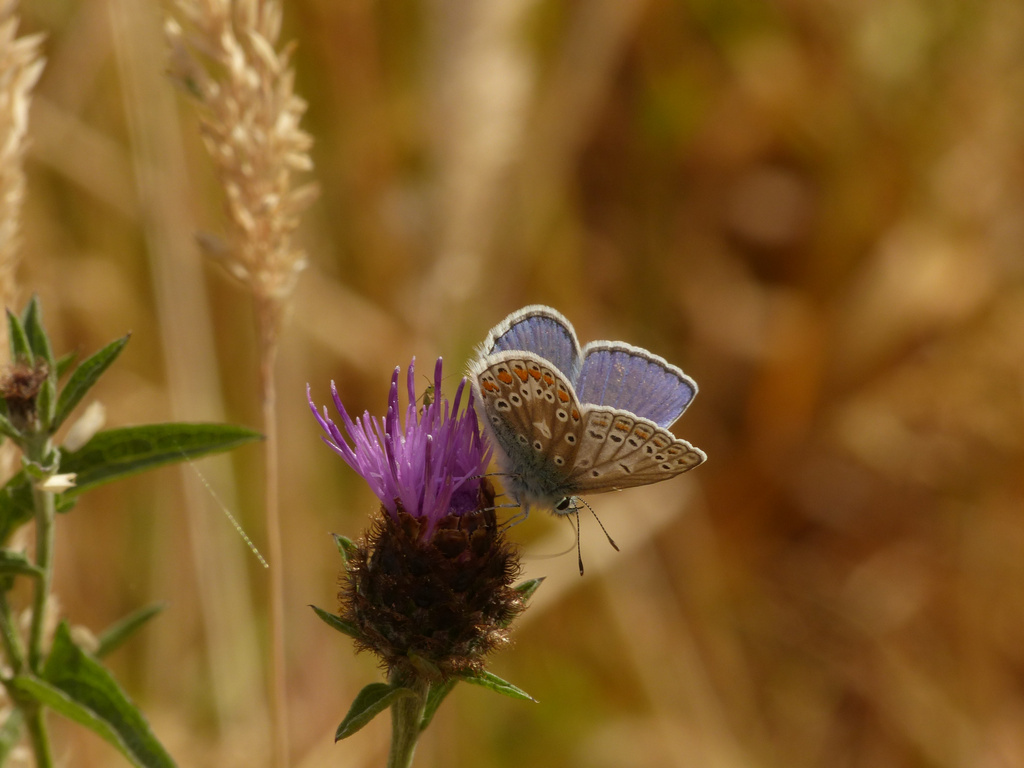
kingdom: Animalia
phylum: Arthropoda
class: Insecta
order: Lepidoptera
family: Lycaenidae
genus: Polyommatus
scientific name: Polyommatus icarus
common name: Common blue
